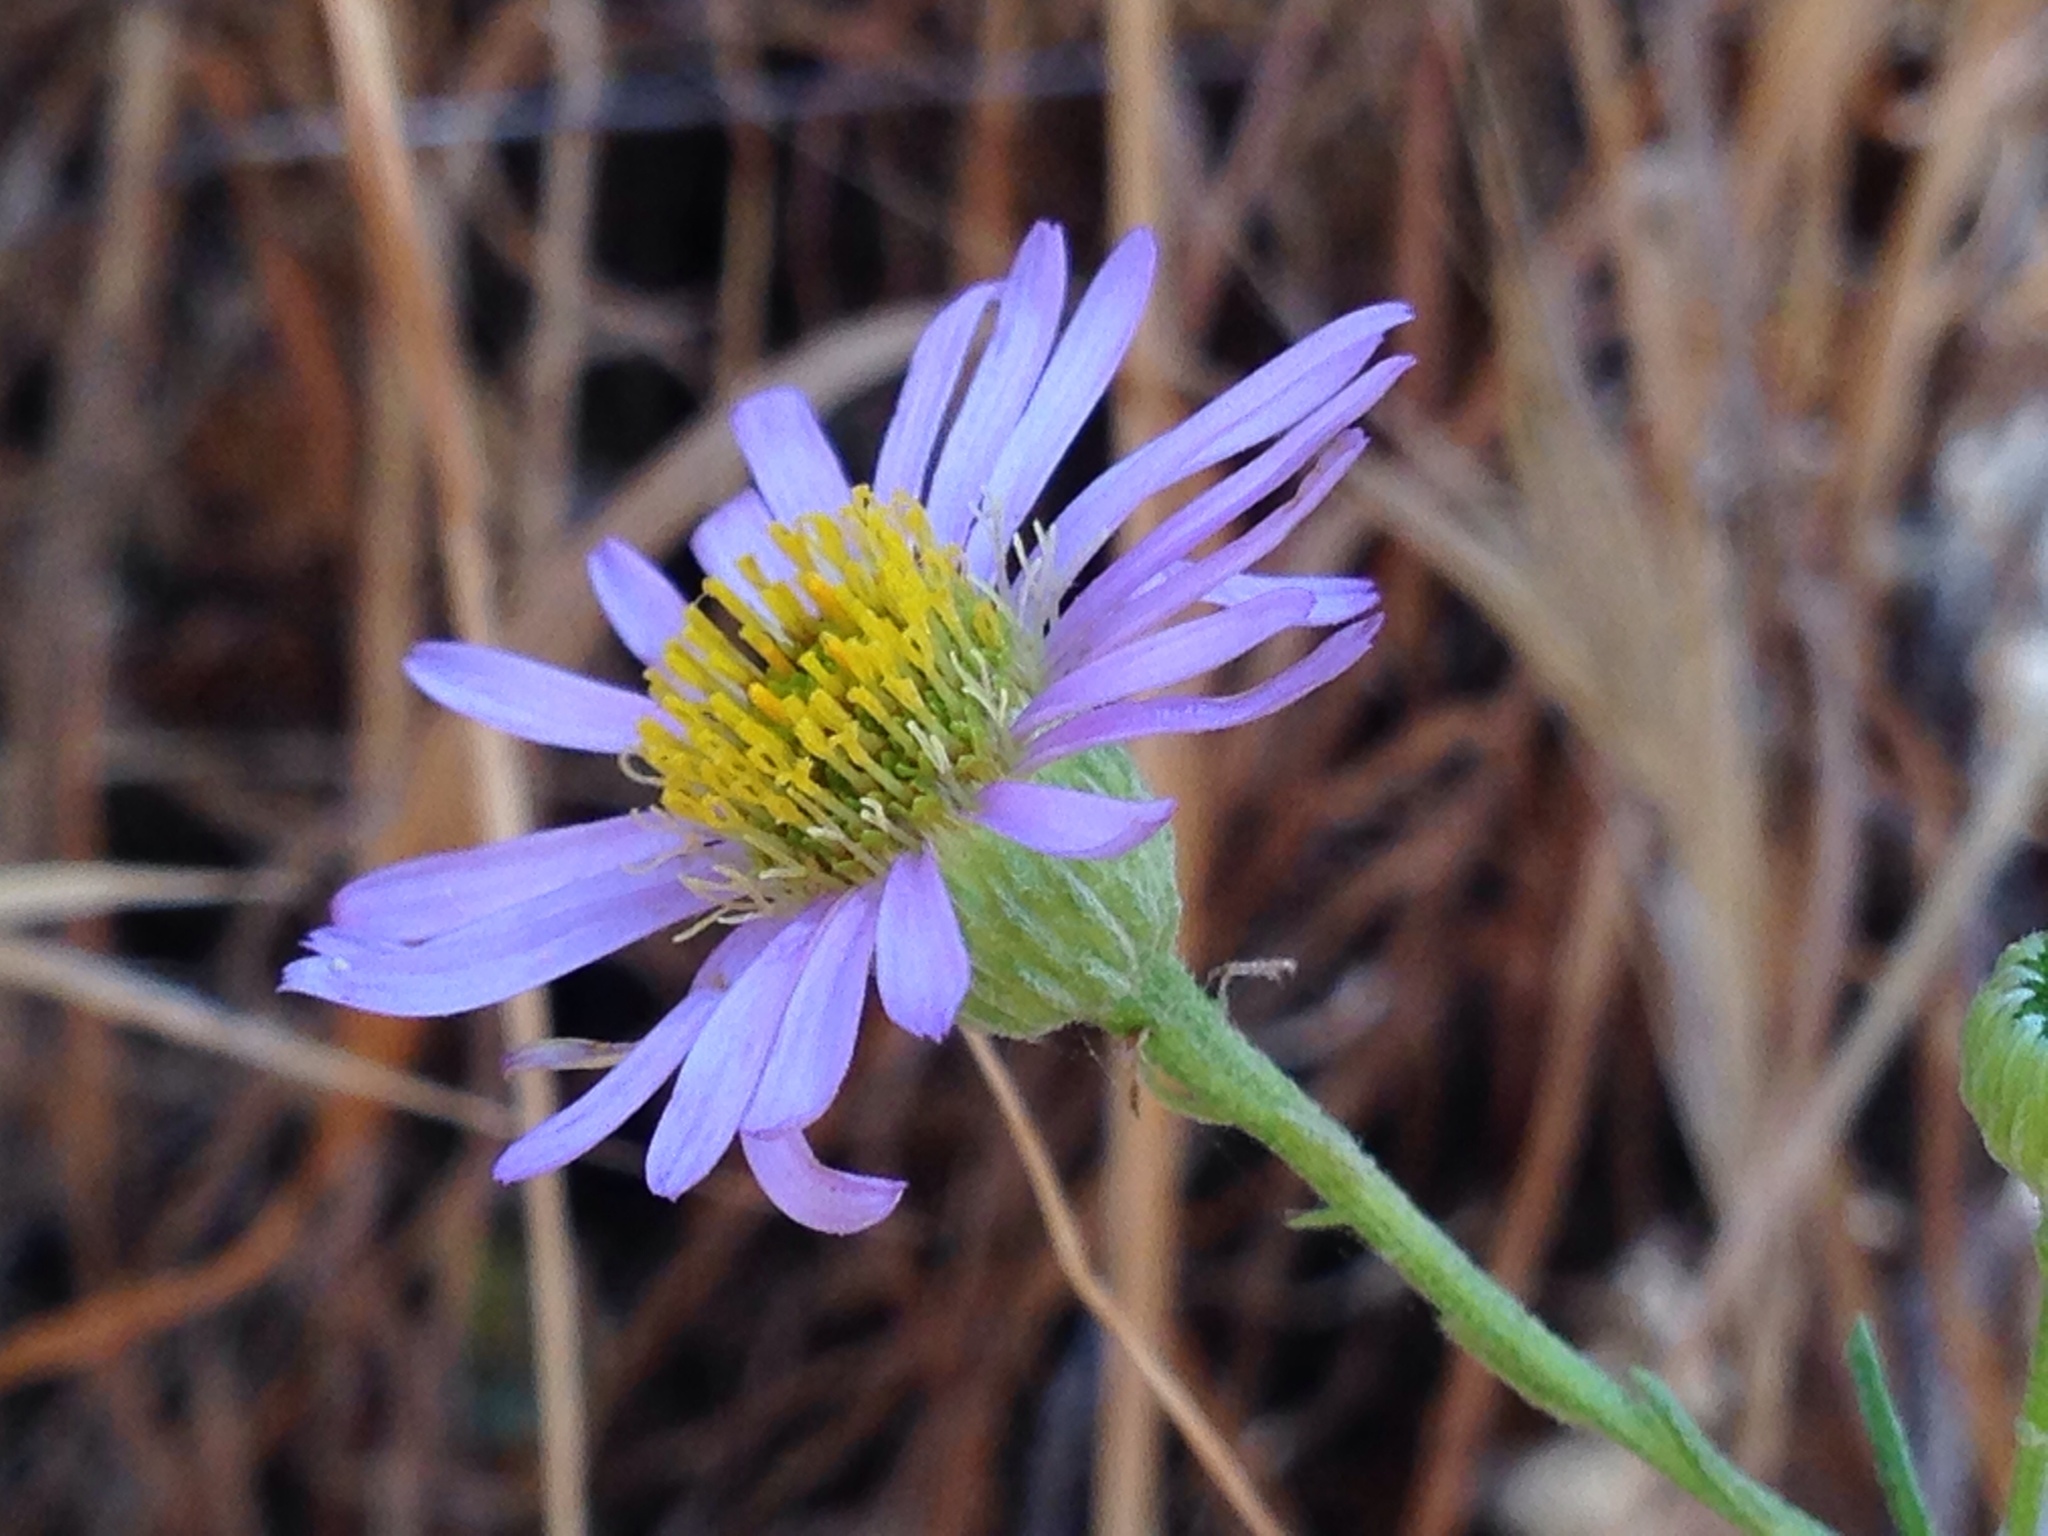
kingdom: Plantae
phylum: Tracheophyta
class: Magnoliopsida
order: Asterales
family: Asteraceae
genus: Erigeron
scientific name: Erigeron foliosus
